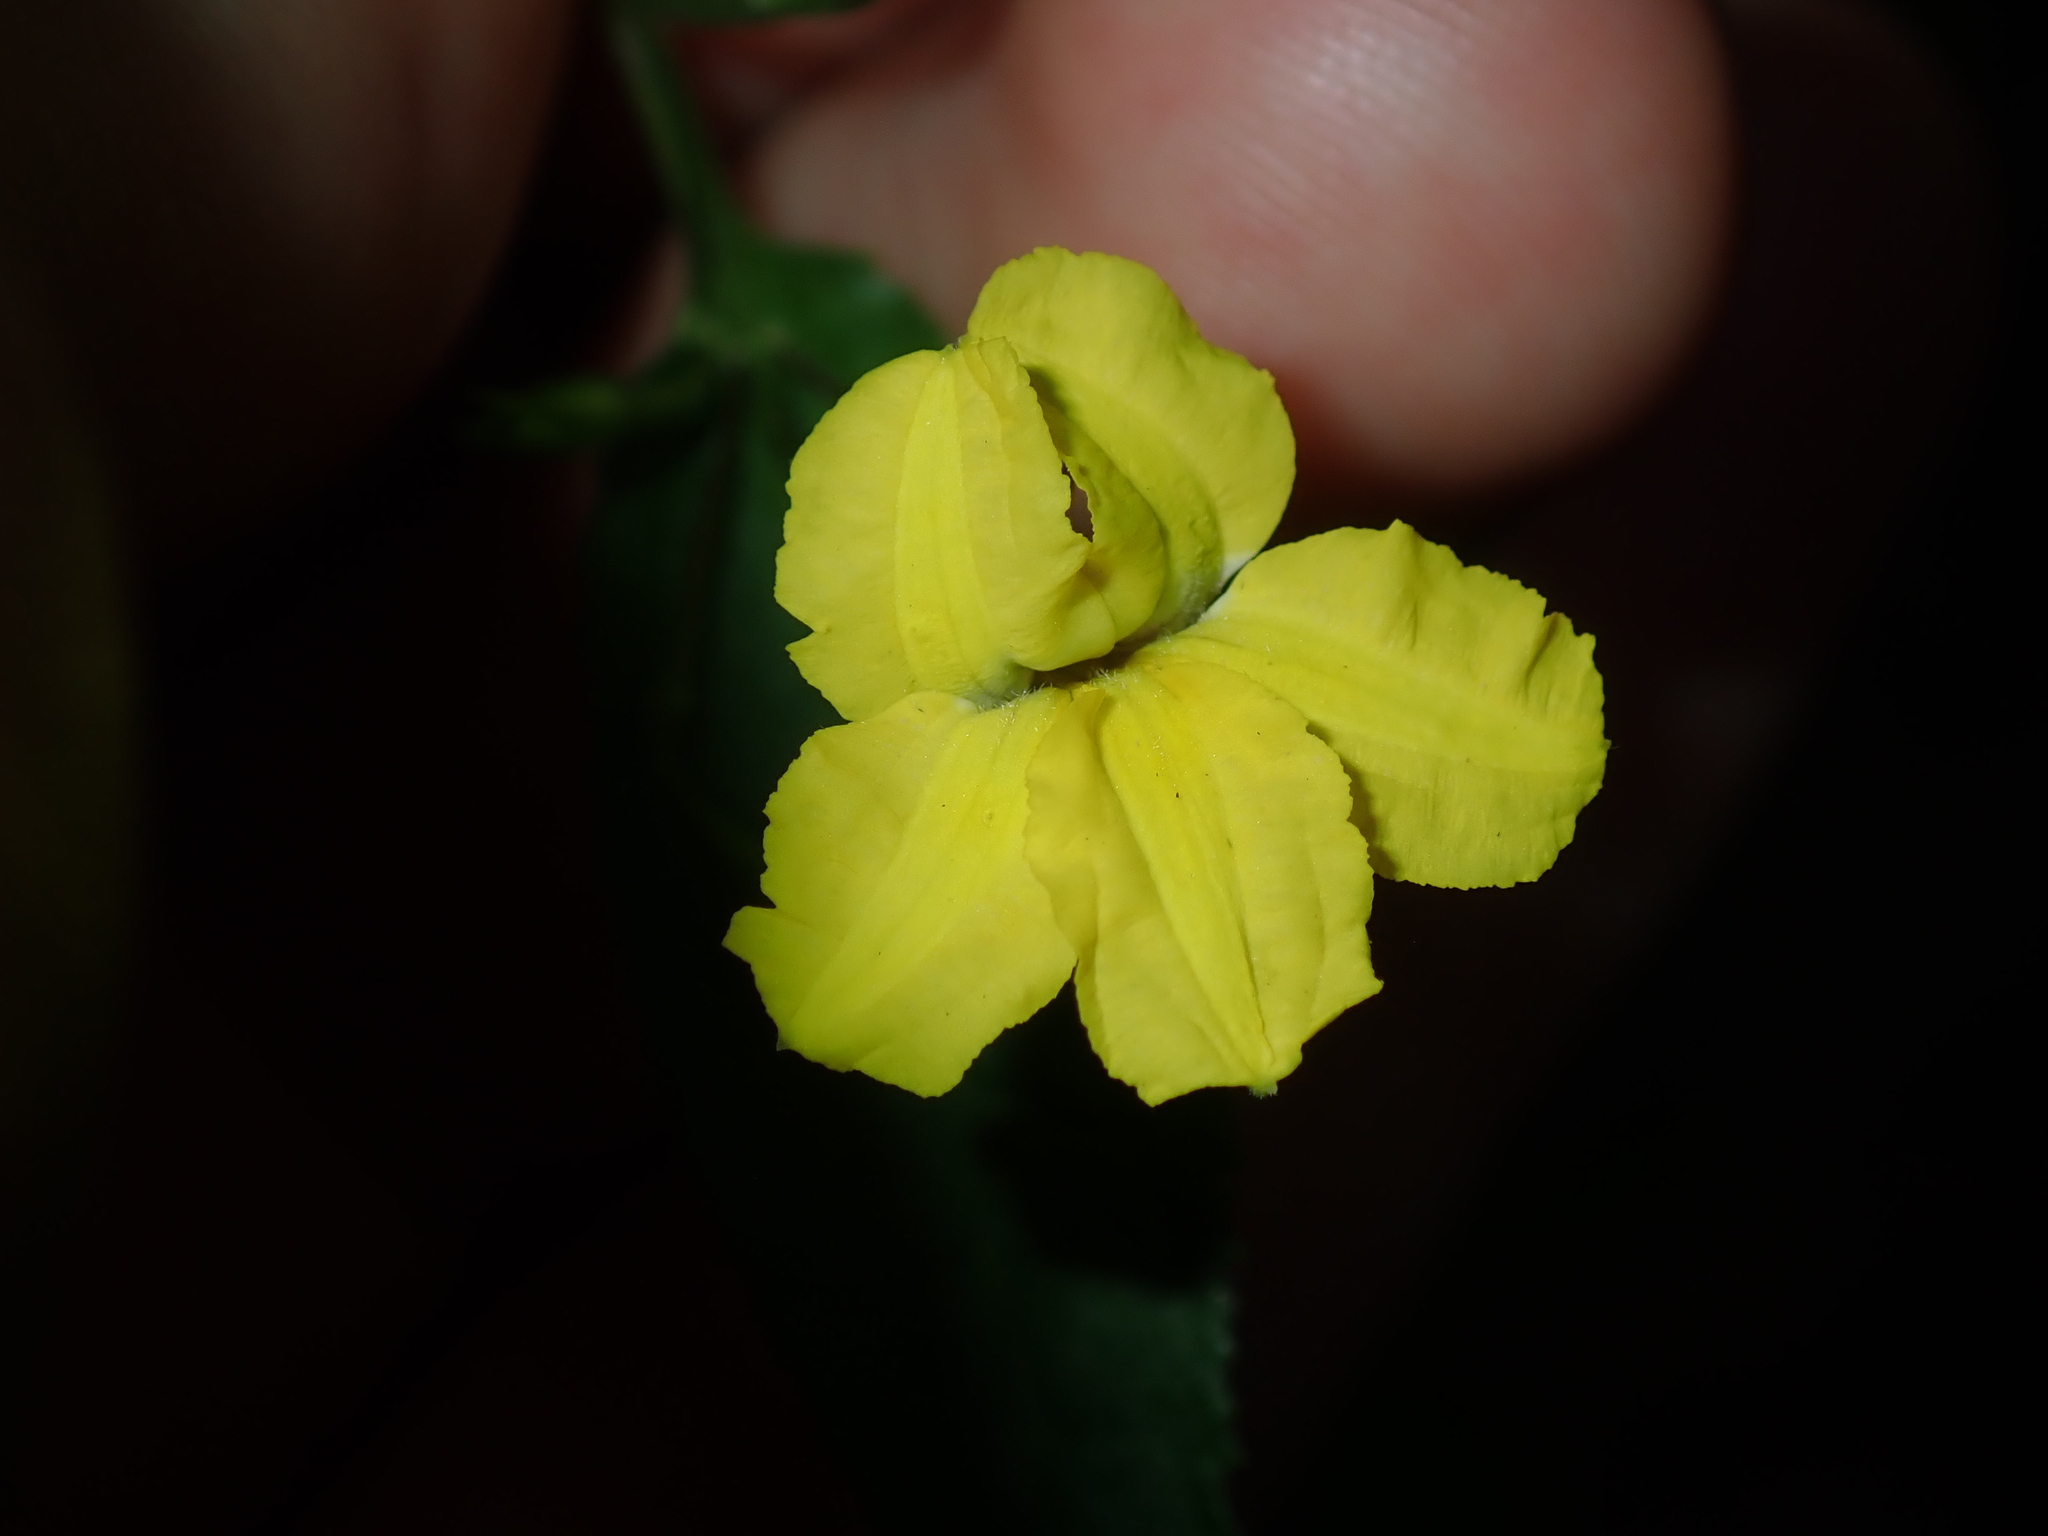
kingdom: Plantae
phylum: Tracheophyta
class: Magnoliopsida
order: Asterales
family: Goodeniaceae
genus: Goodenia
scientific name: Goodenia ovata
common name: Hop goodenia
